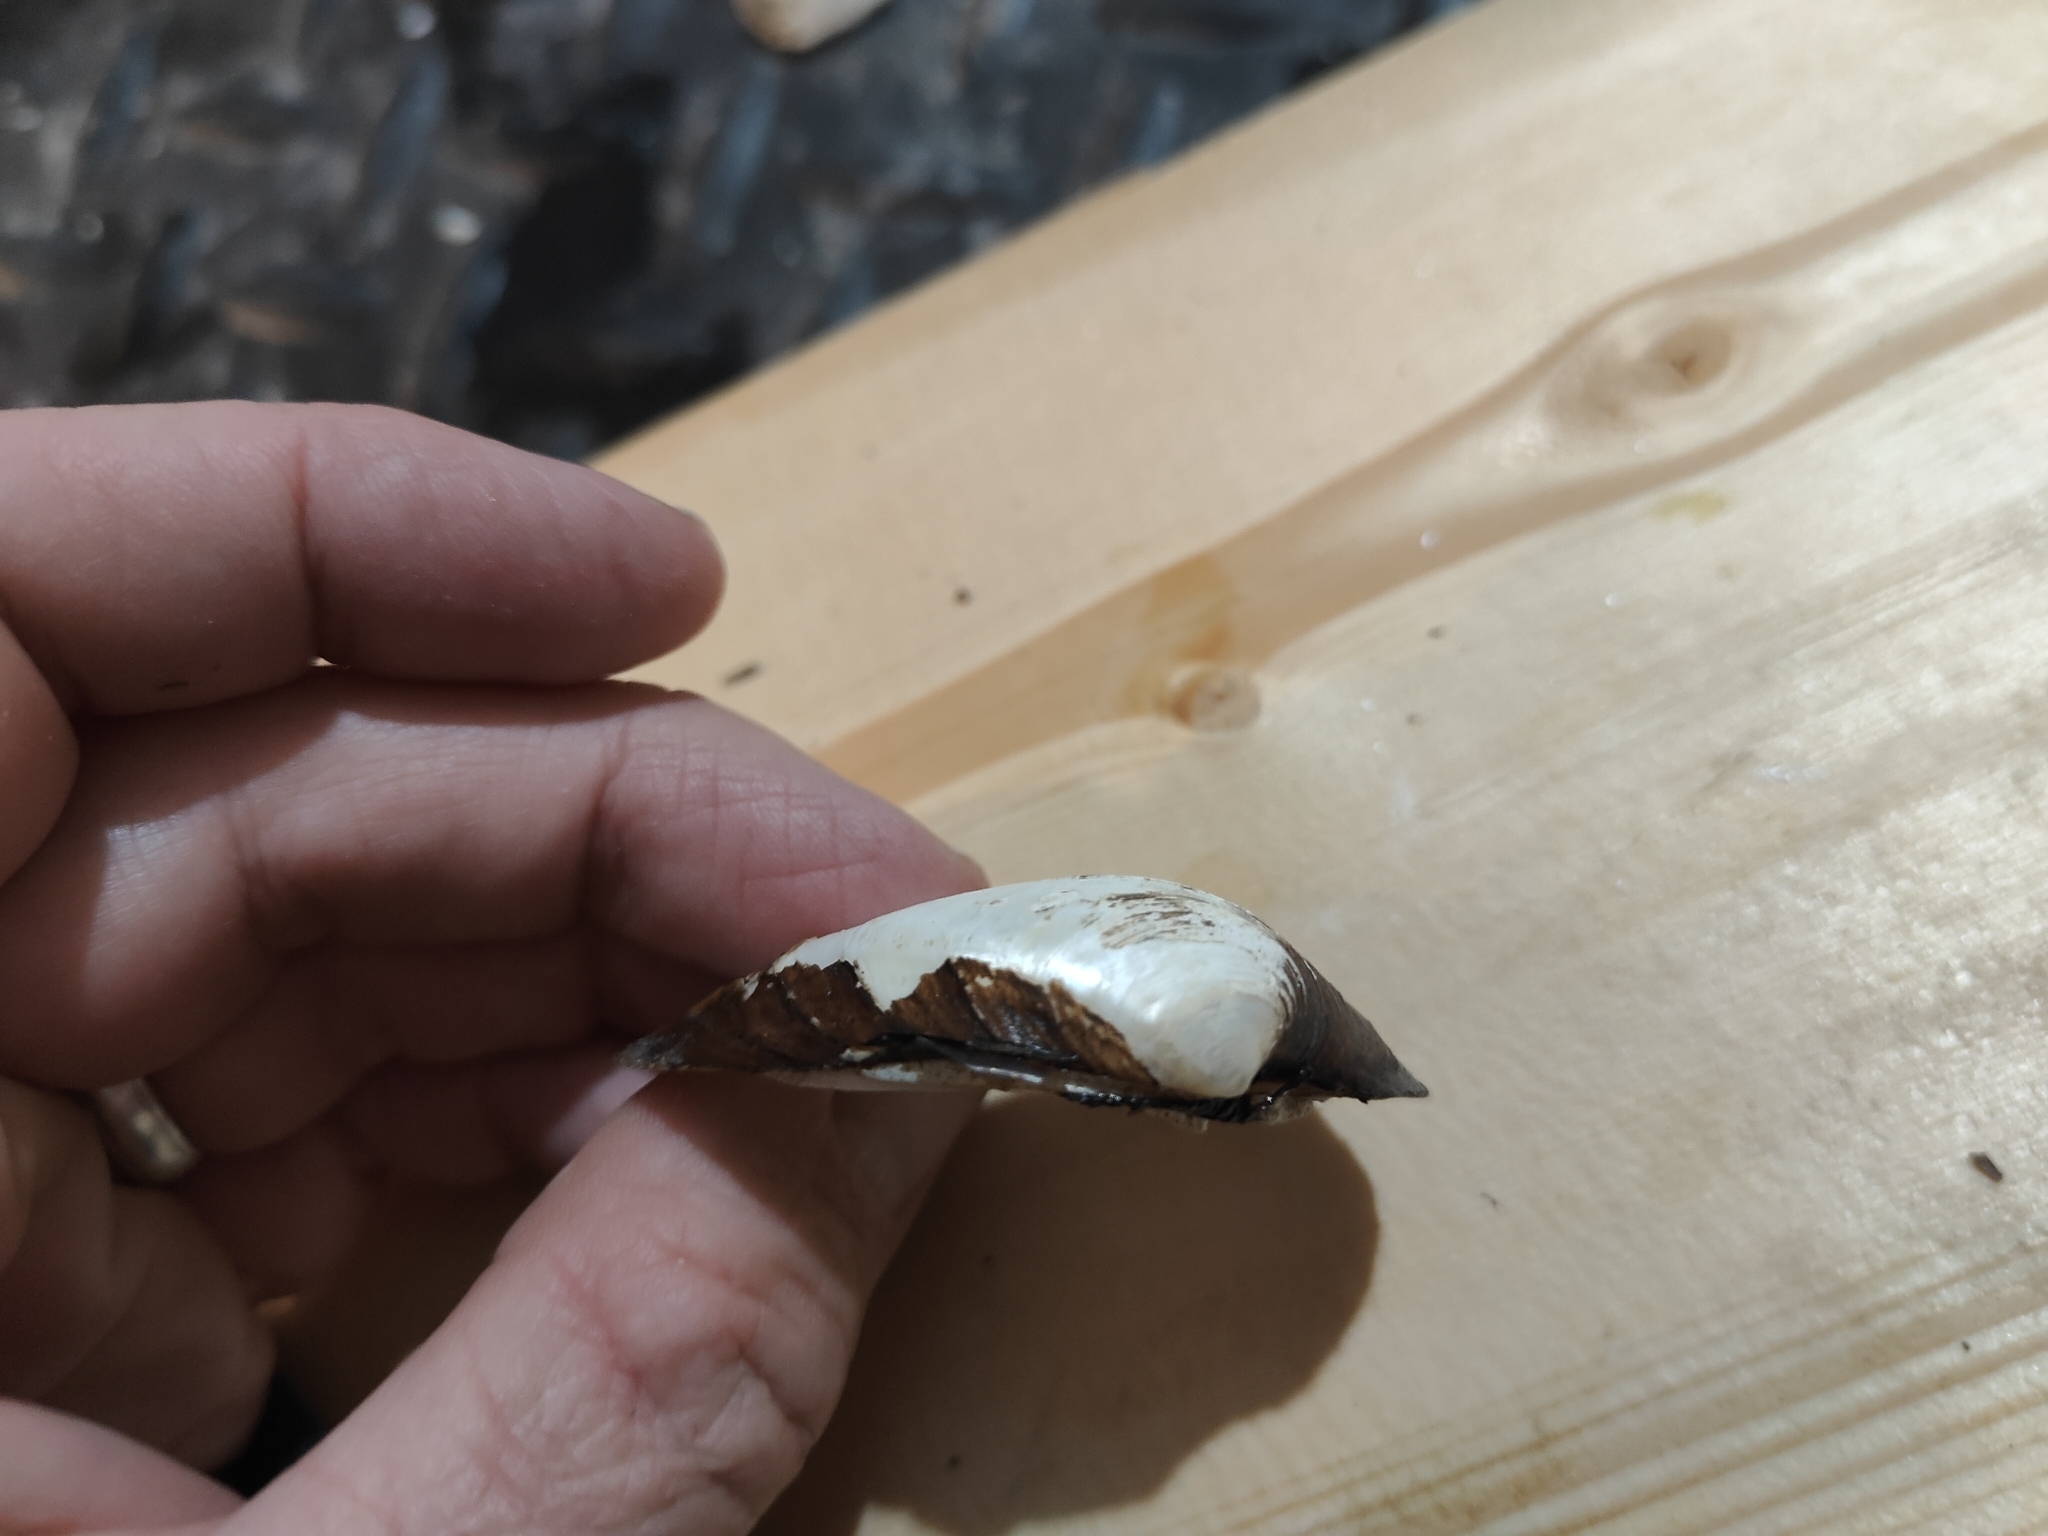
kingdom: Animalia
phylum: Mollusca
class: Bivalvia
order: Unionida
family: Unionidae
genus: Fusconaia
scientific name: Fusconaia flava
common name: Wabash pigtoe
